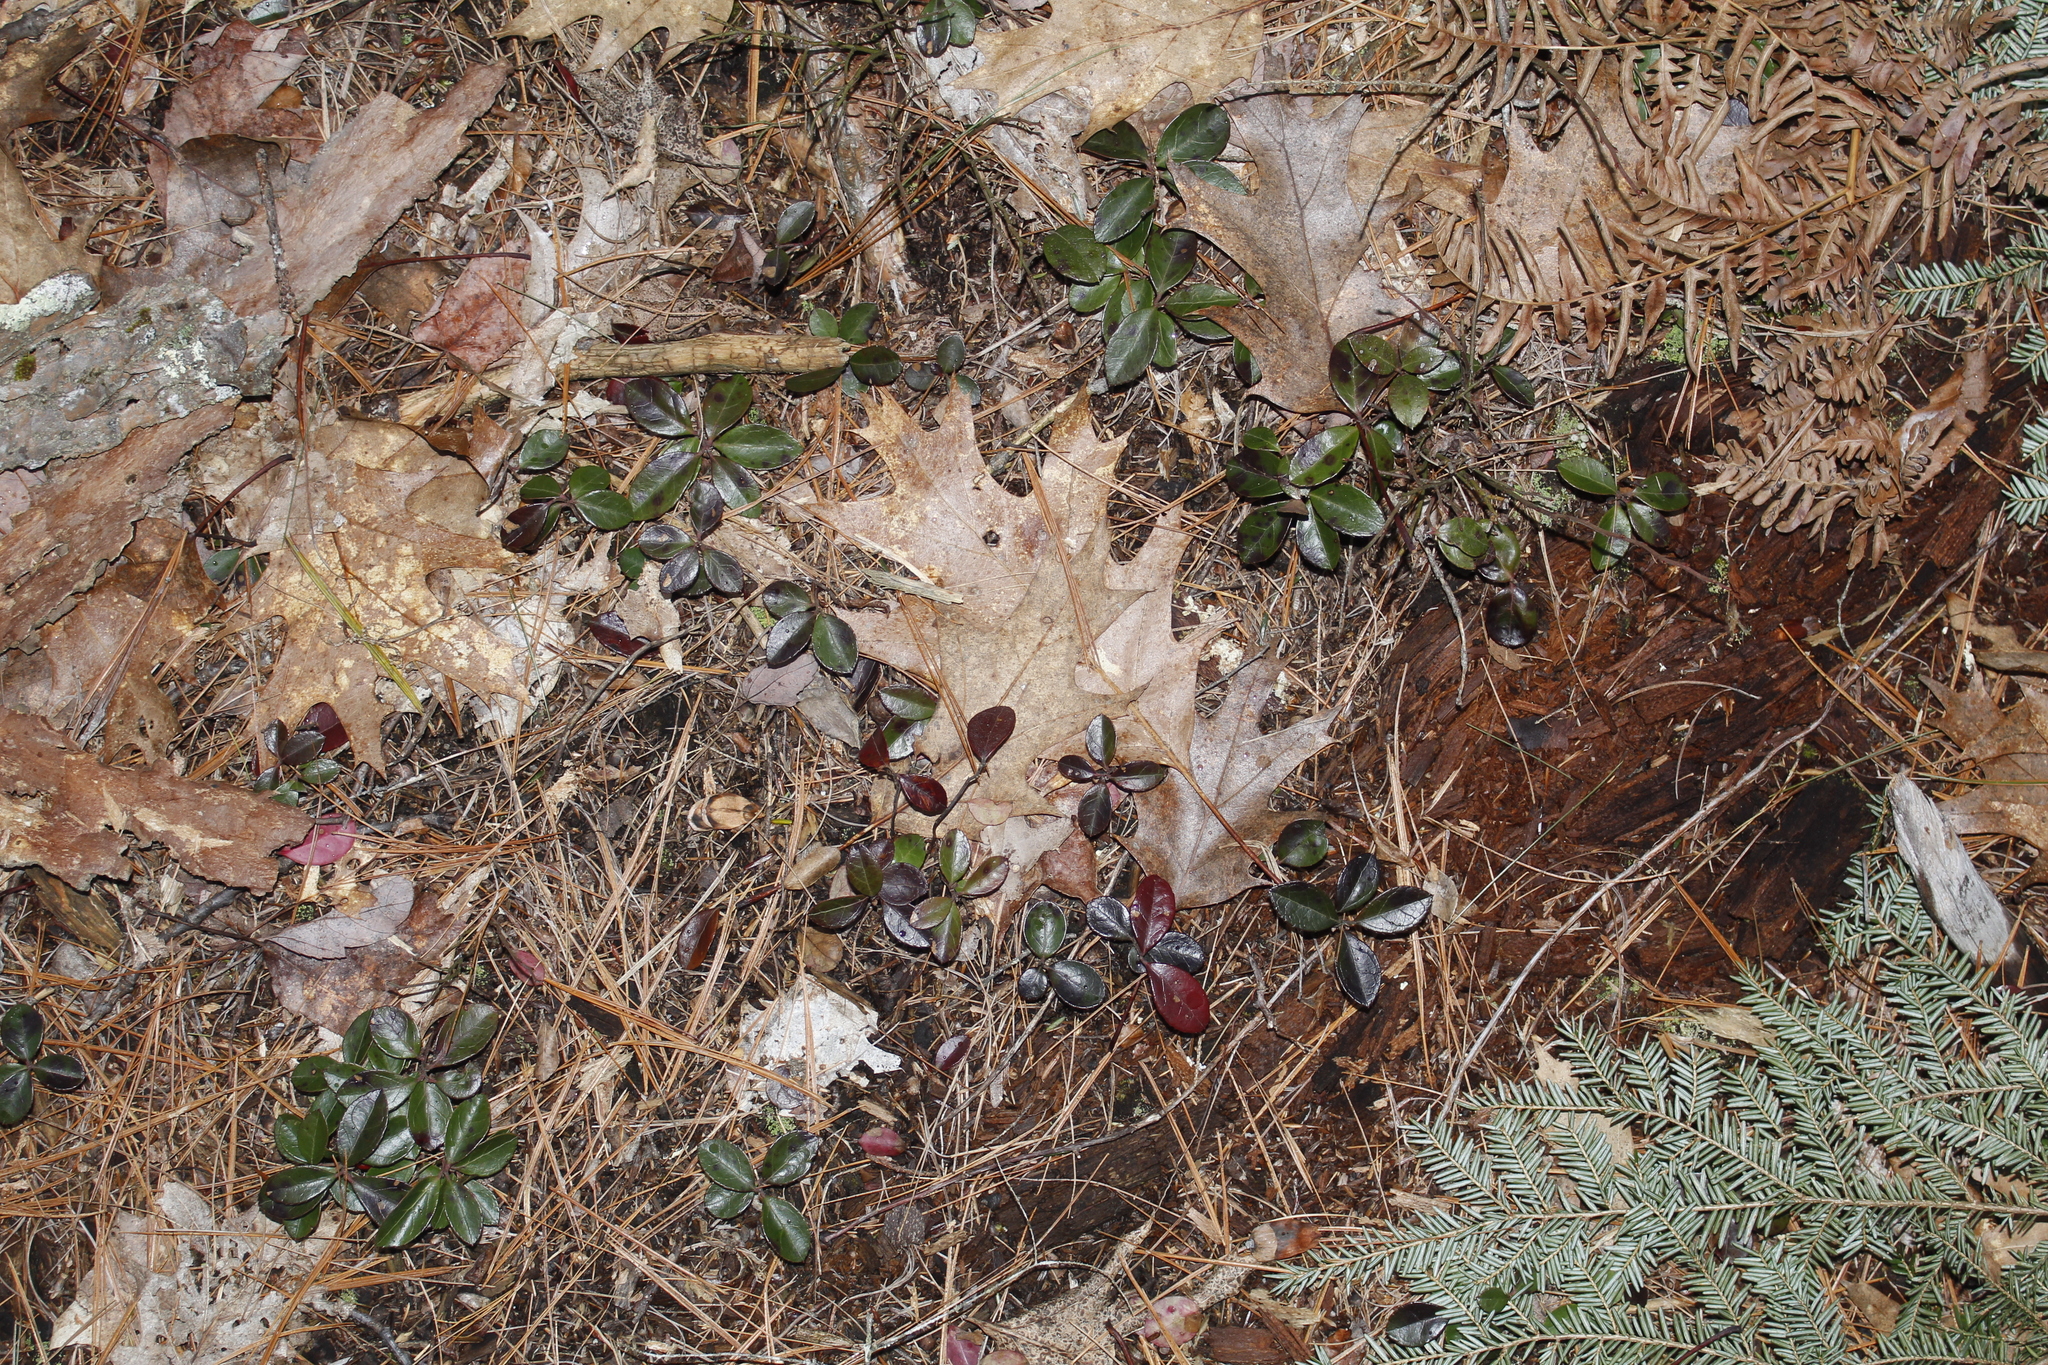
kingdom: Plantae
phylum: Tracheophyta
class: Magnoliopsida
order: Ericales
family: Ericaceae
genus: Gaultheria
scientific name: Gaultheria procumbens
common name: Checkerberry
